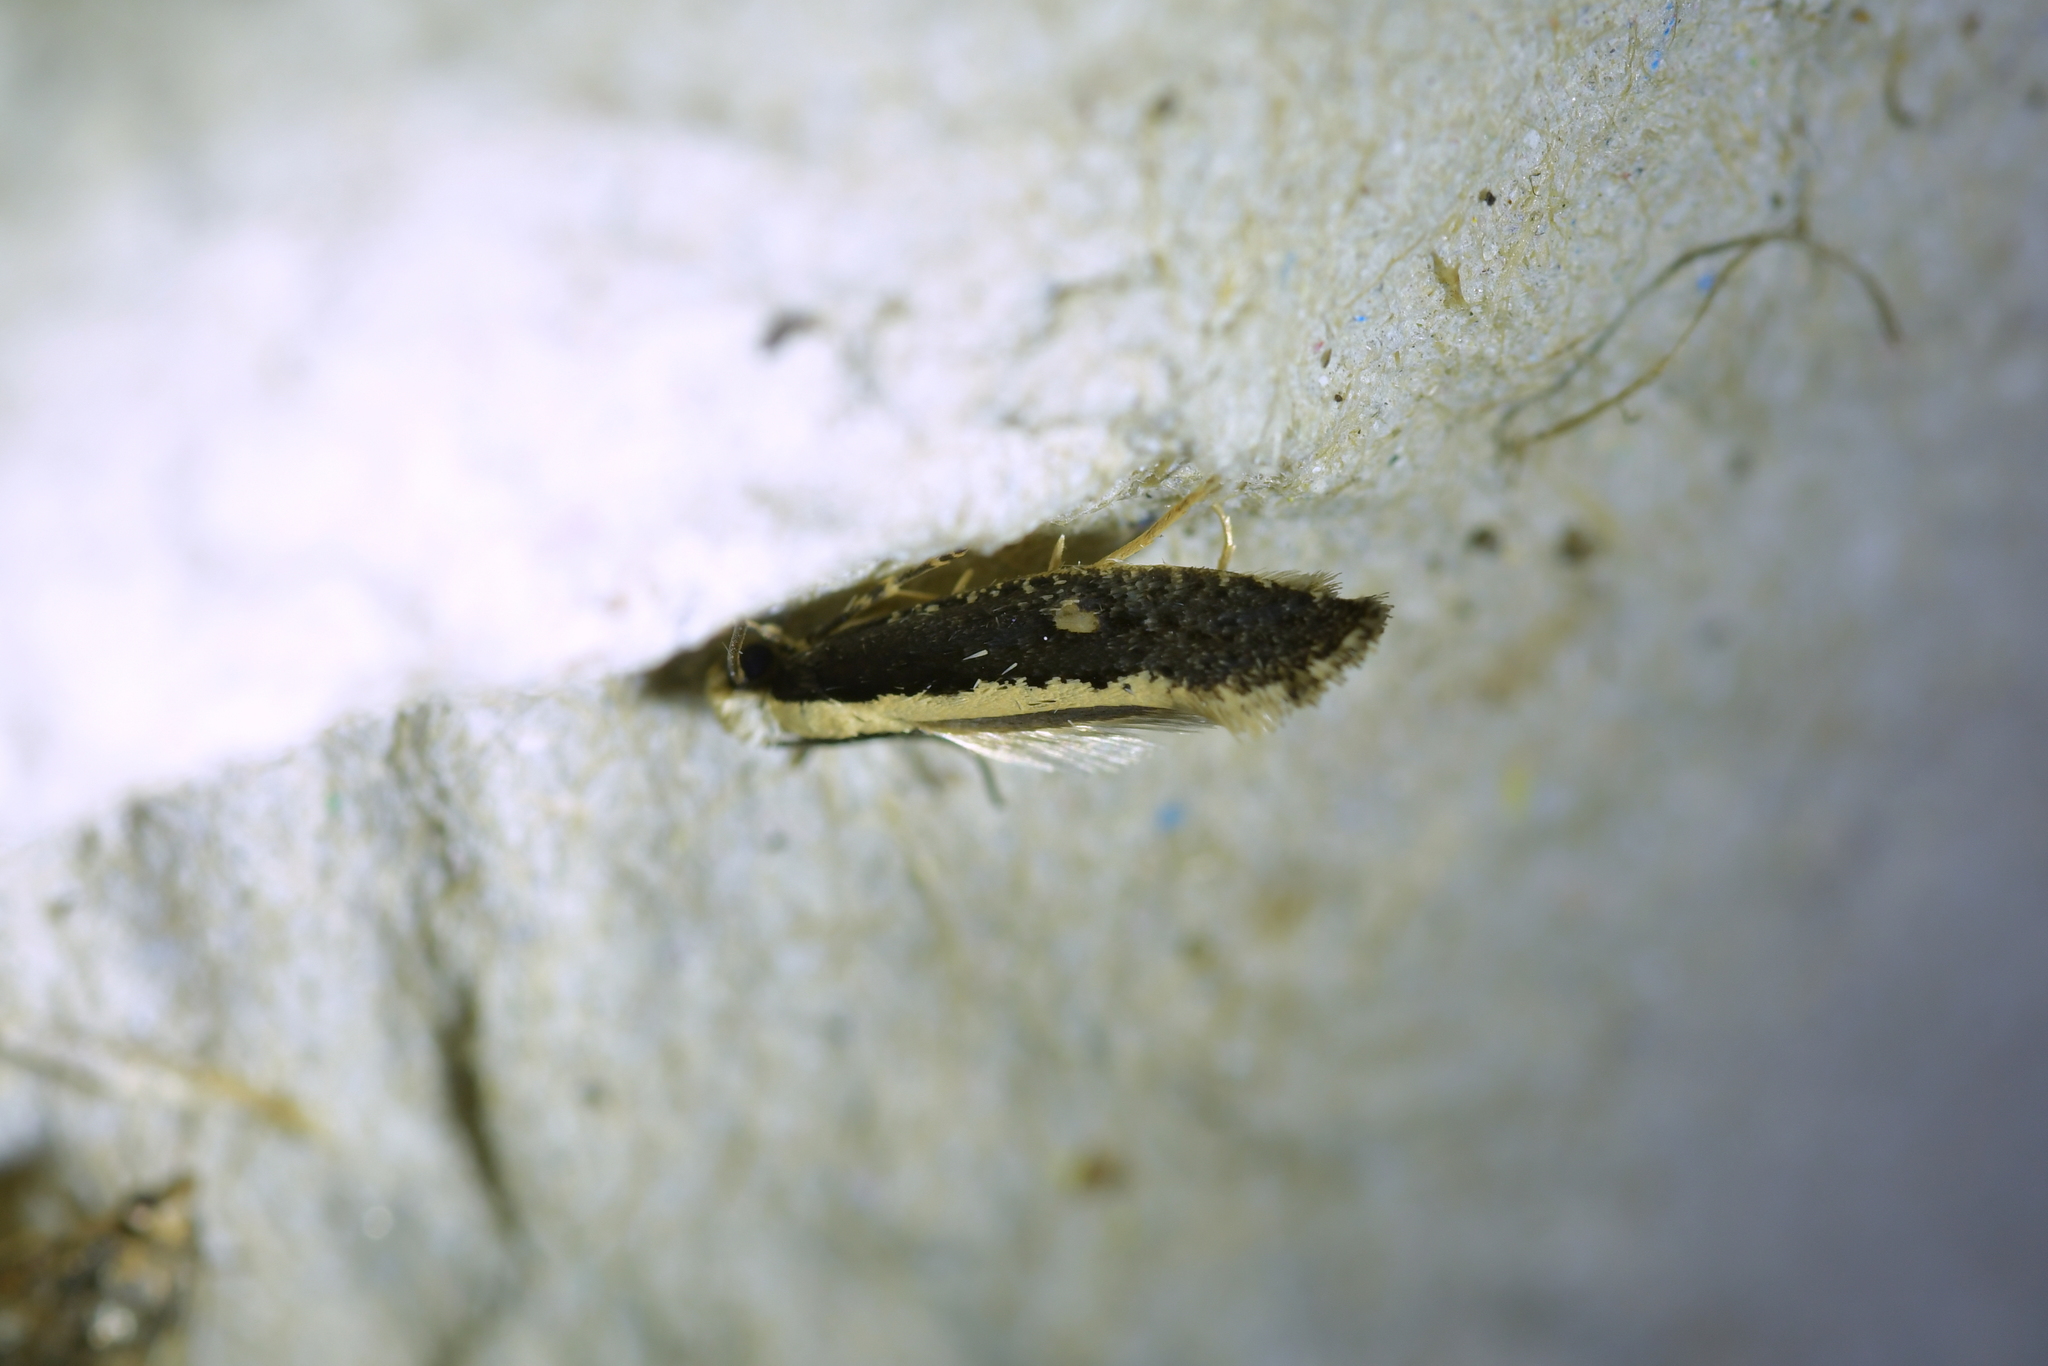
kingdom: Animalia
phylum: Arthropoda
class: Insecta
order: Lepidoptera
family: Tineidae
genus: Monopis
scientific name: Monopis crocicapitella
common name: Moth
